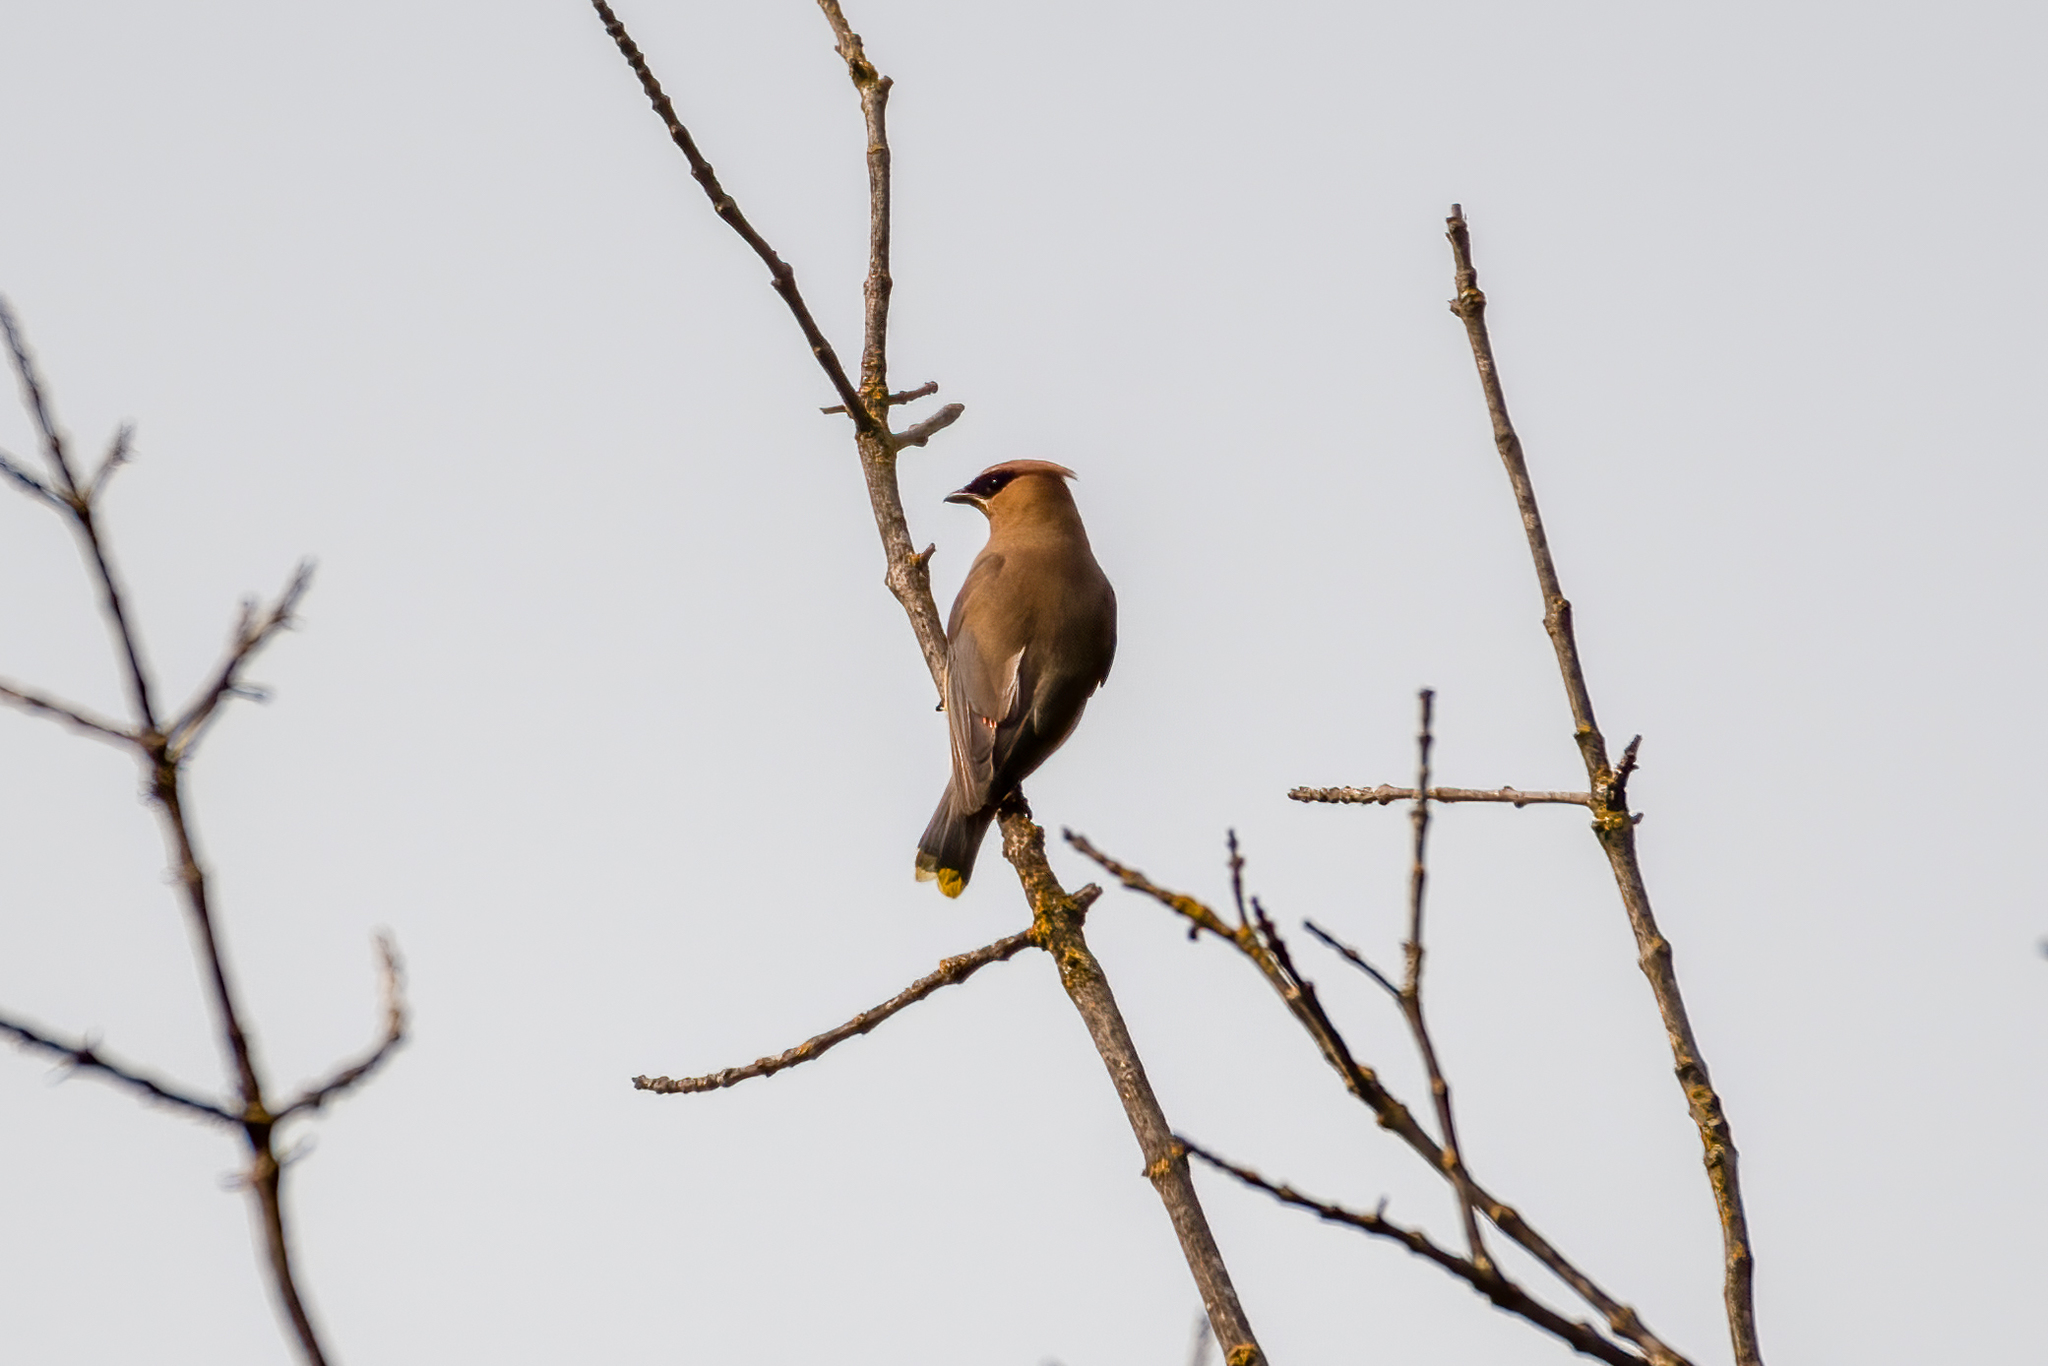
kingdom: Animalia
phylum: Chordata
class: Aves
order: Passeriformes
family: Bombycillidae
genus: Bombycilla
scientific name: Bombycilla cedrorum
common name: Cedar waxwing
